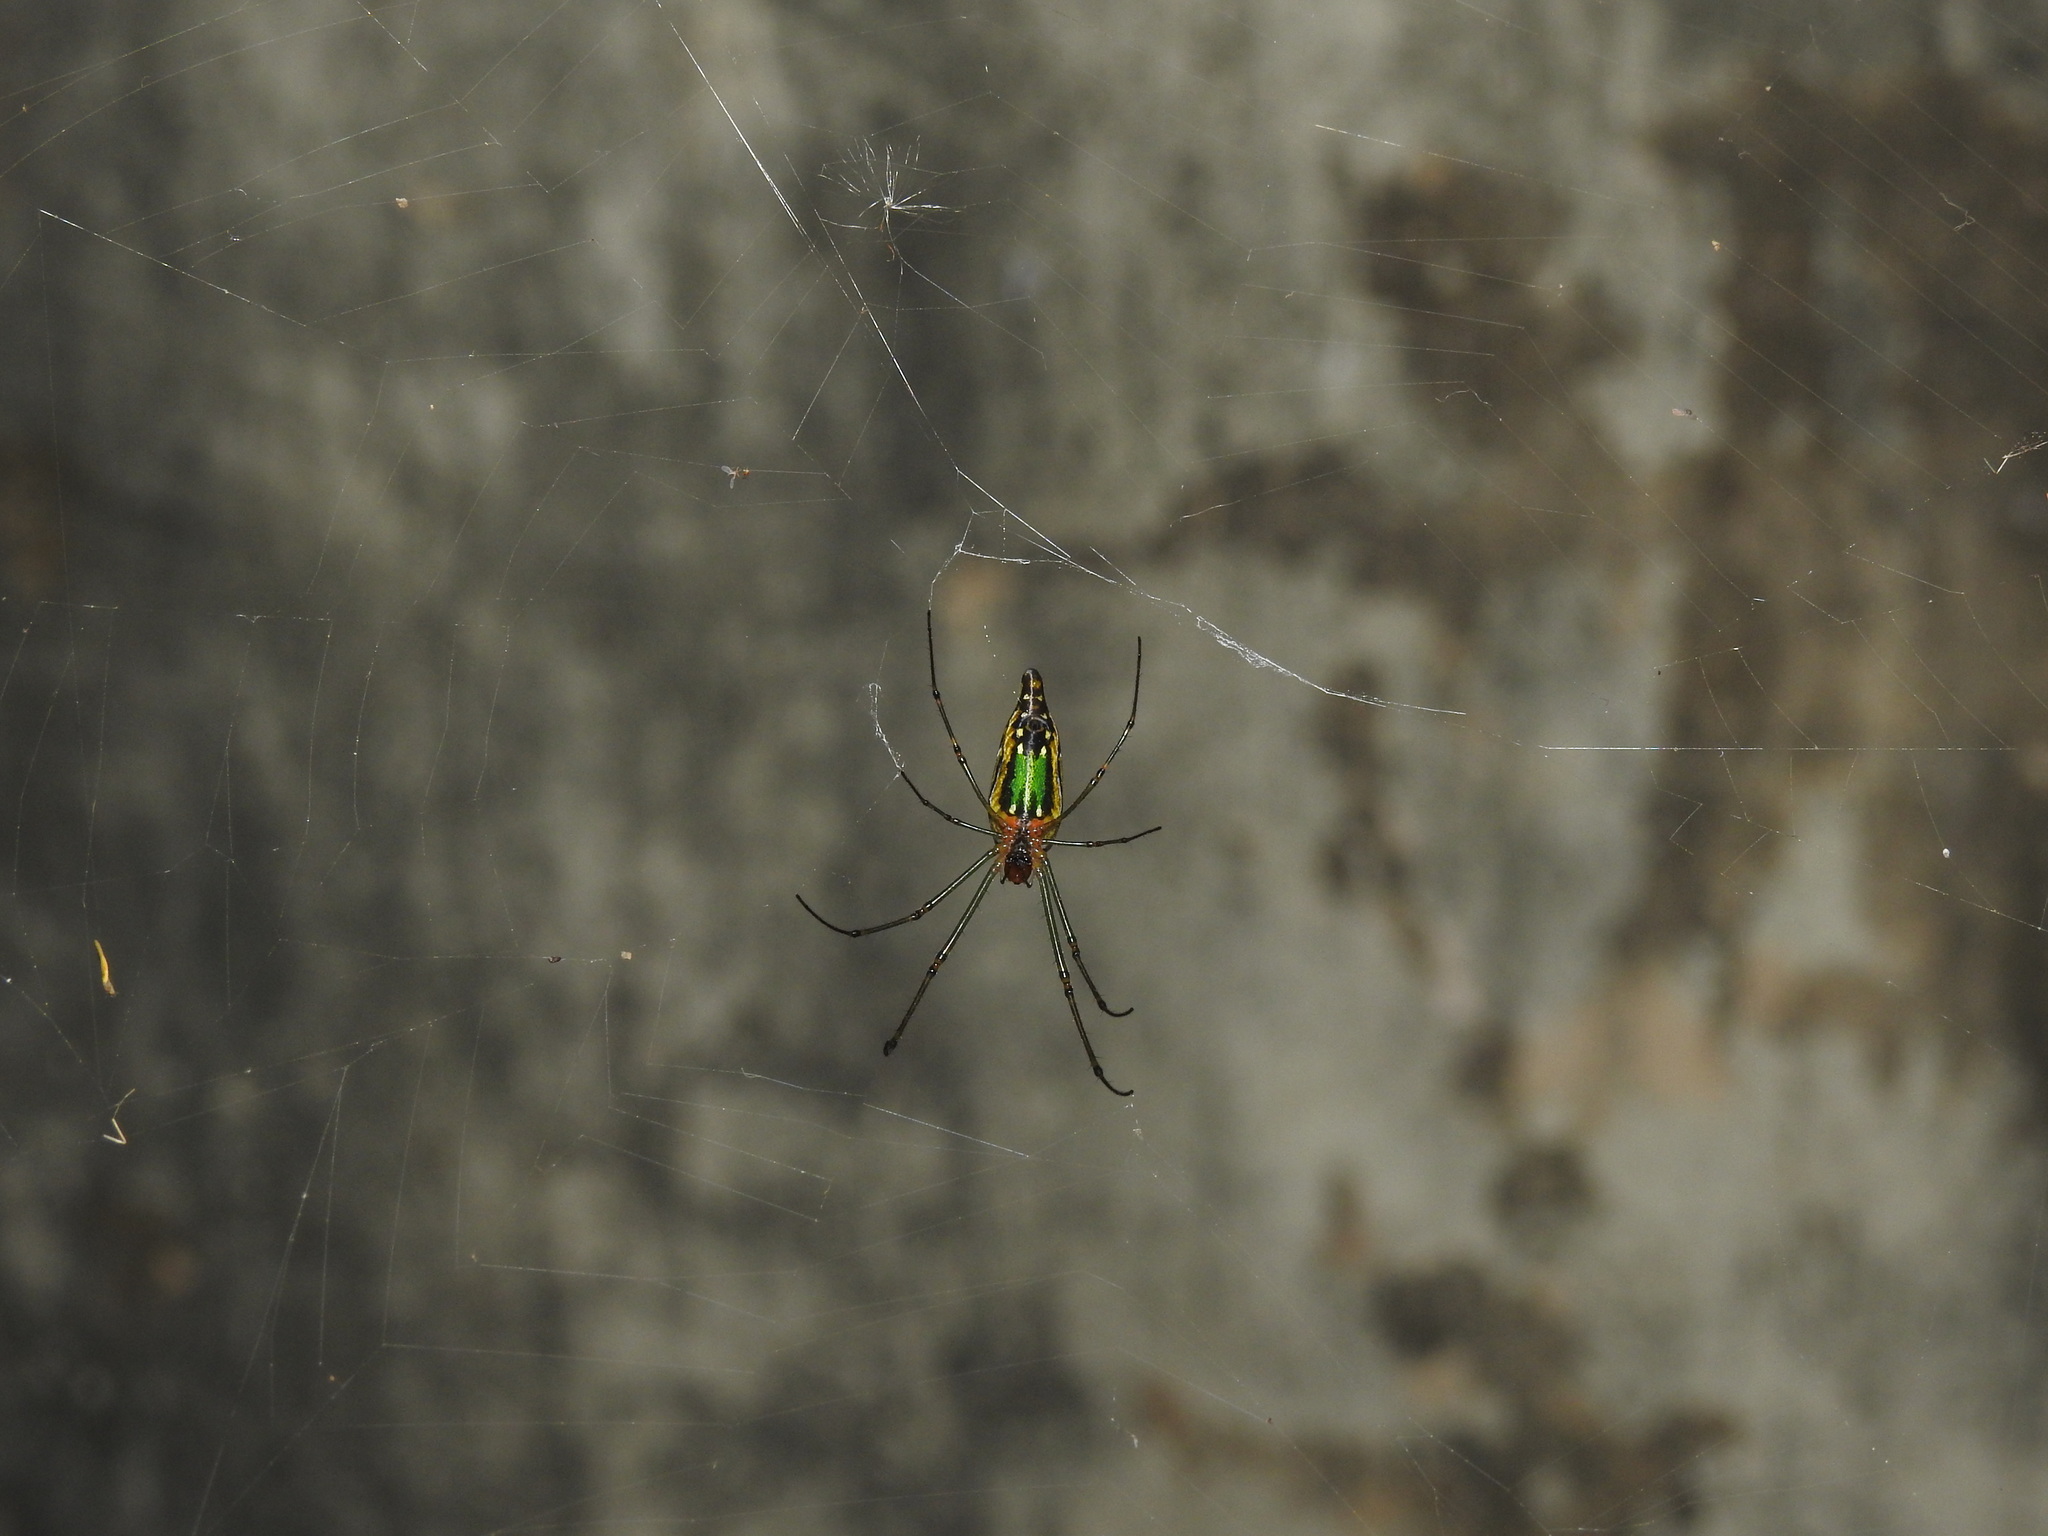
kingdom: Animalia
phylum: Arthropoda
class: Arachnida
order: Araneae
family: Tetragnathidae
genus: Leucauge
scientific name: Leucauge decorata
